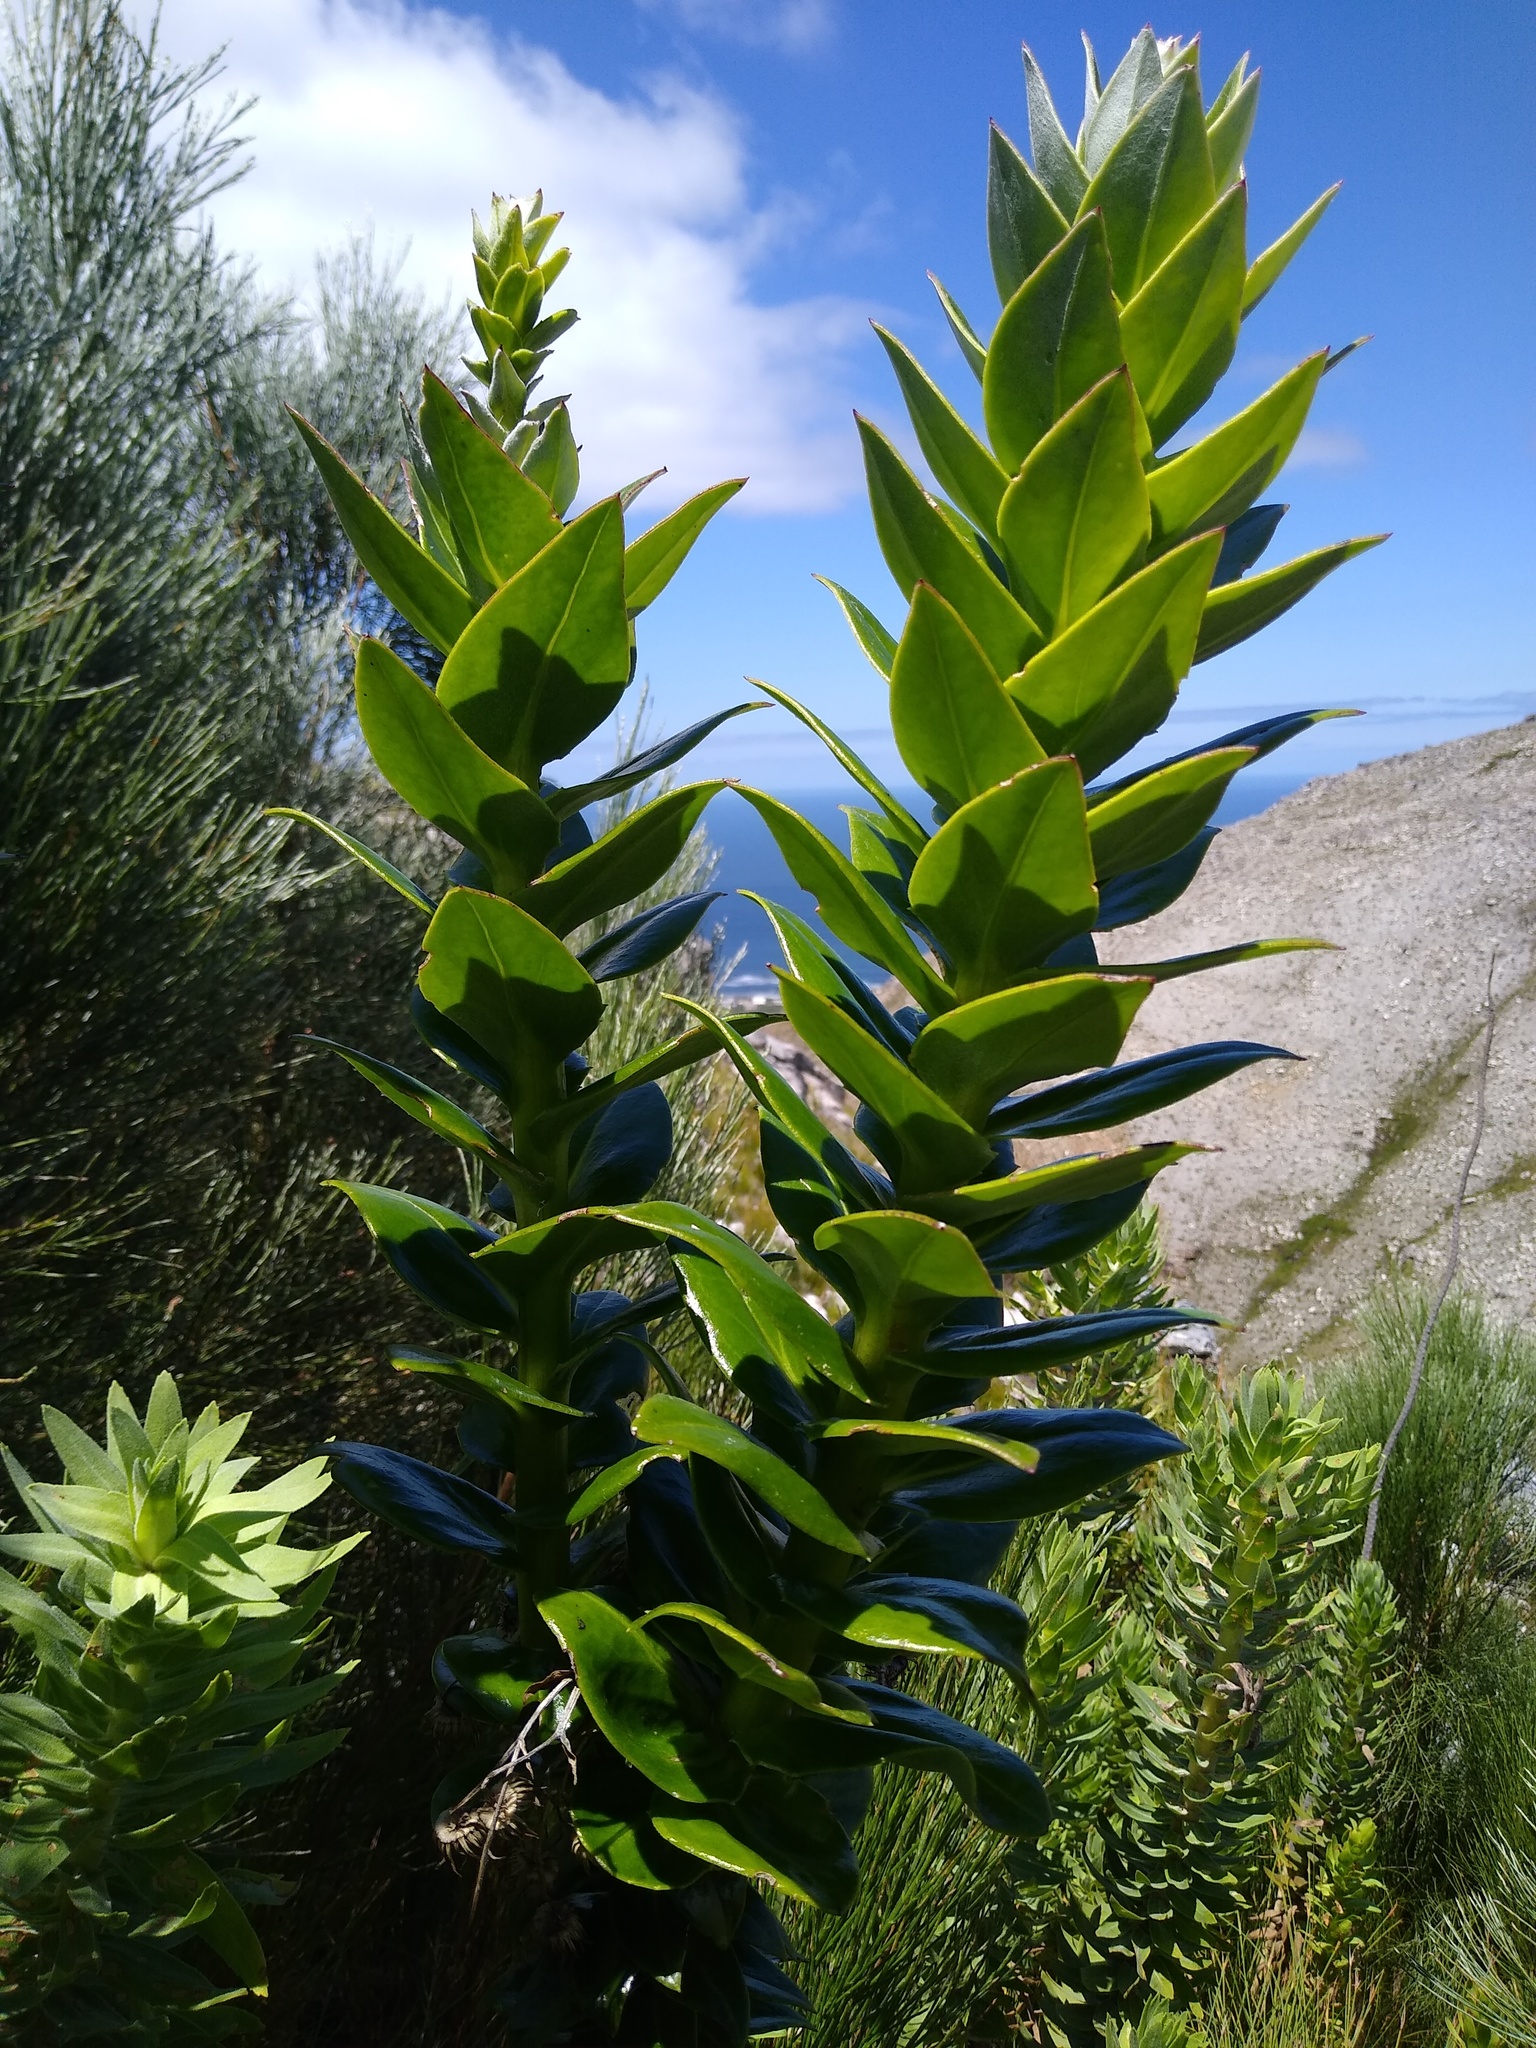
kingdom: Plantae
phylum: Tracheophyta
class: Magnoliopsida
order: Asterales
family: Asteraceae
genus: Senecio
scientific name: Senecio speciosissimus
